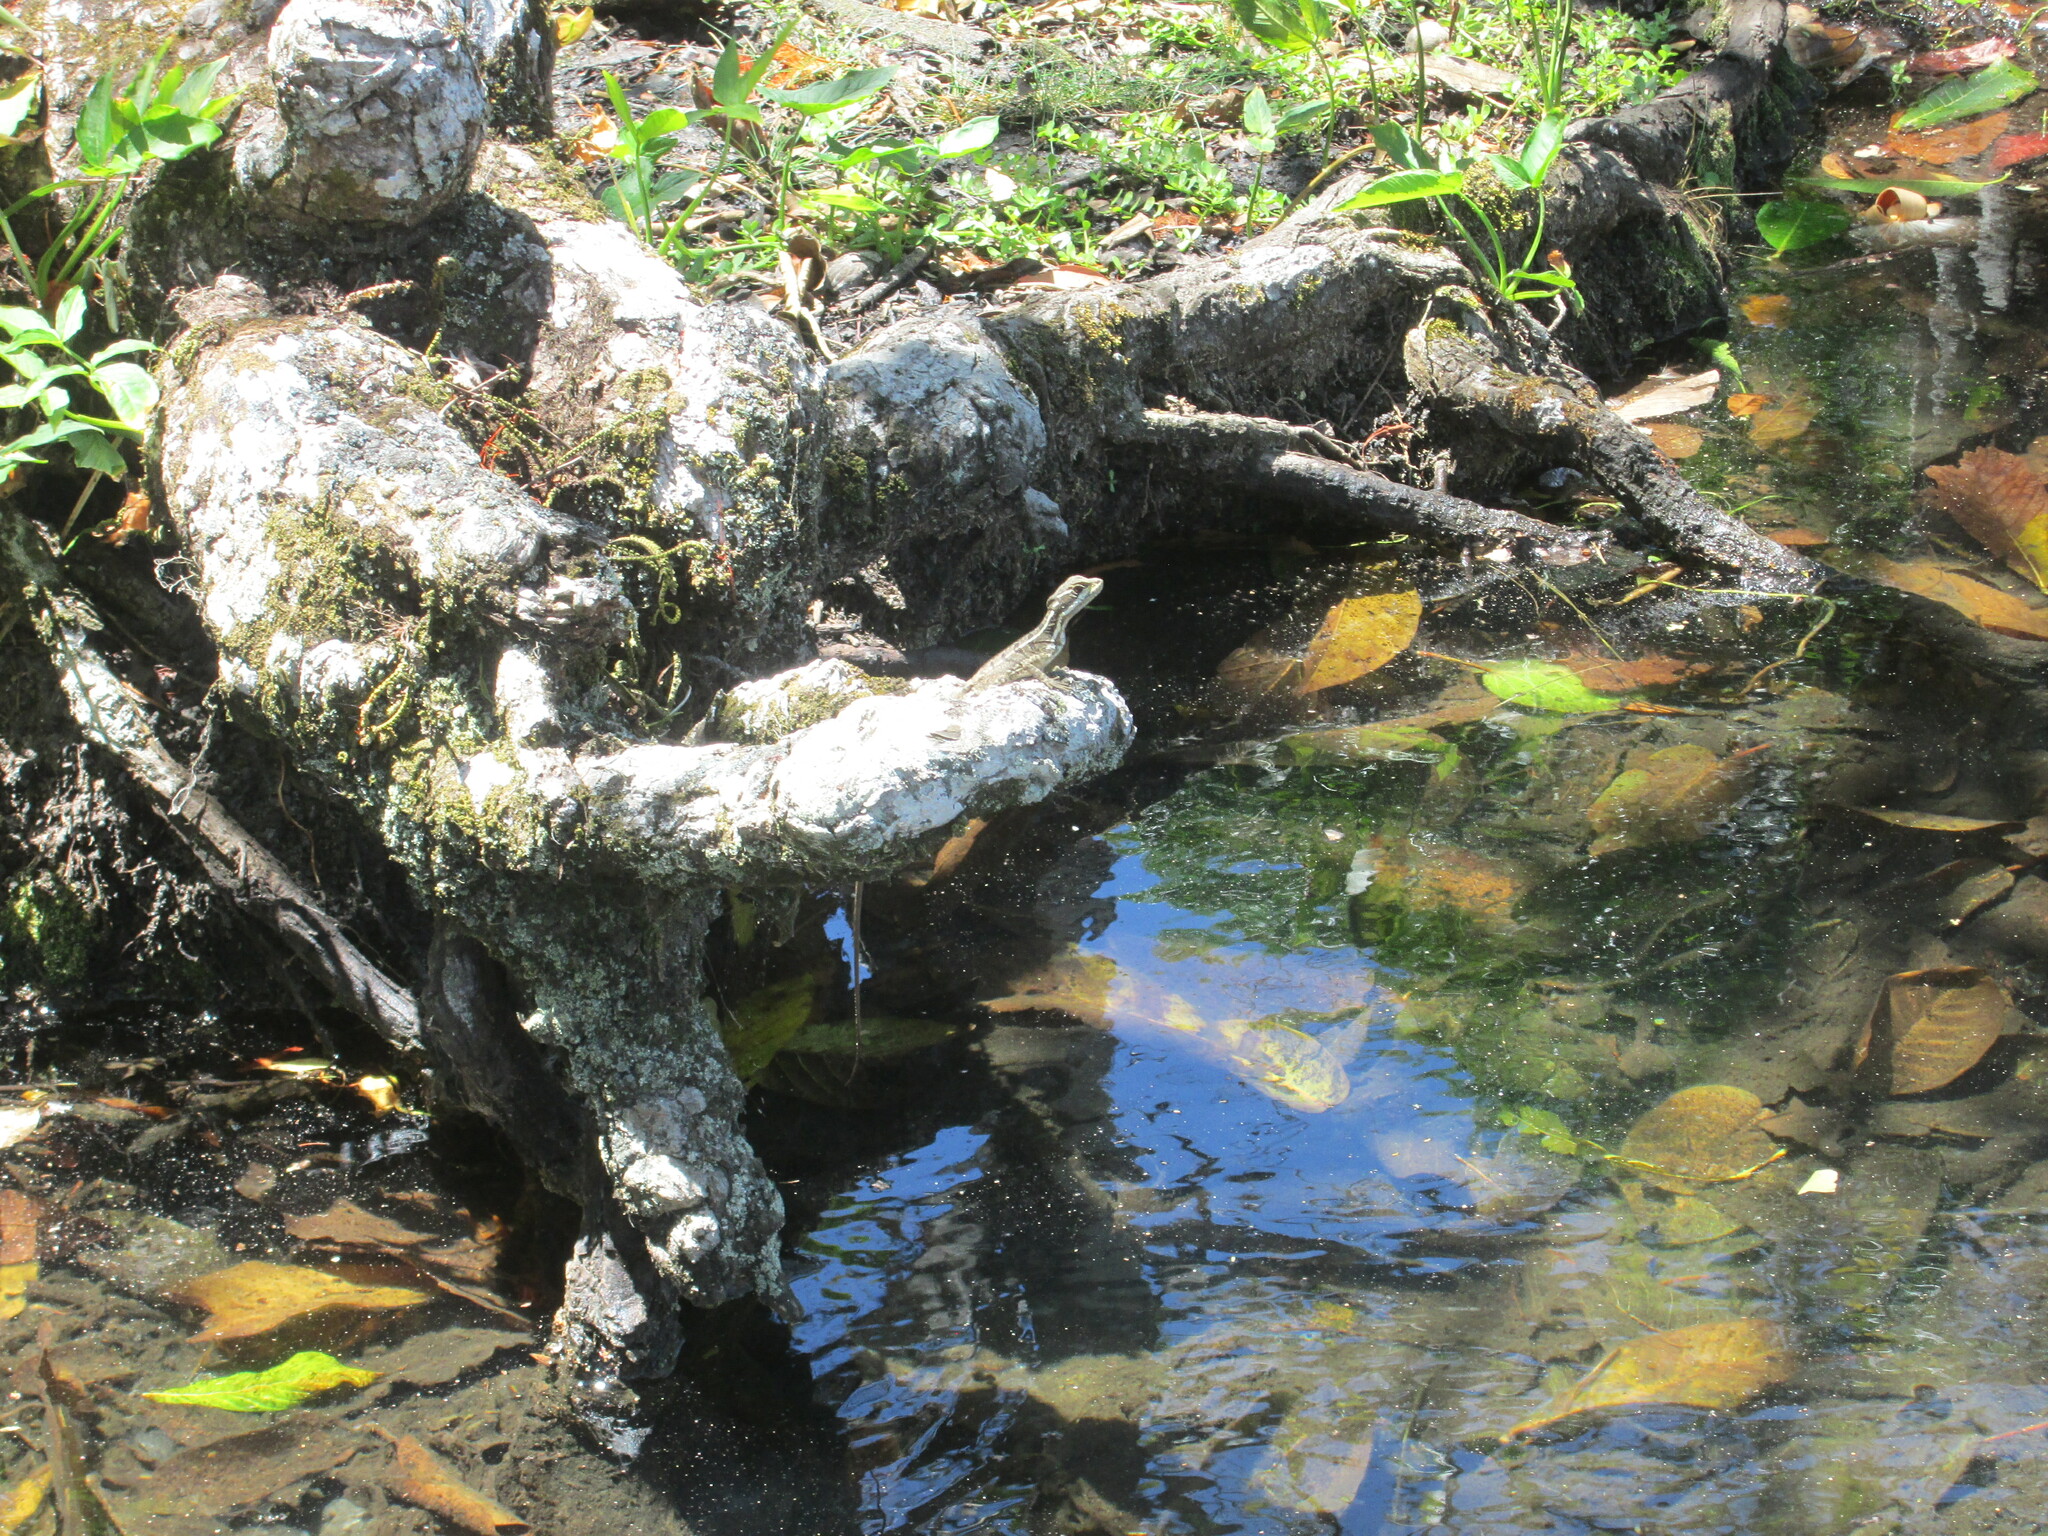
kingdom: Animalia
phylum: Chordata
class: Squamata
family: Corytophanidae
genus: Basiliscus
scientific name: Basiliscus basiliscus
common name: Common basilisk
